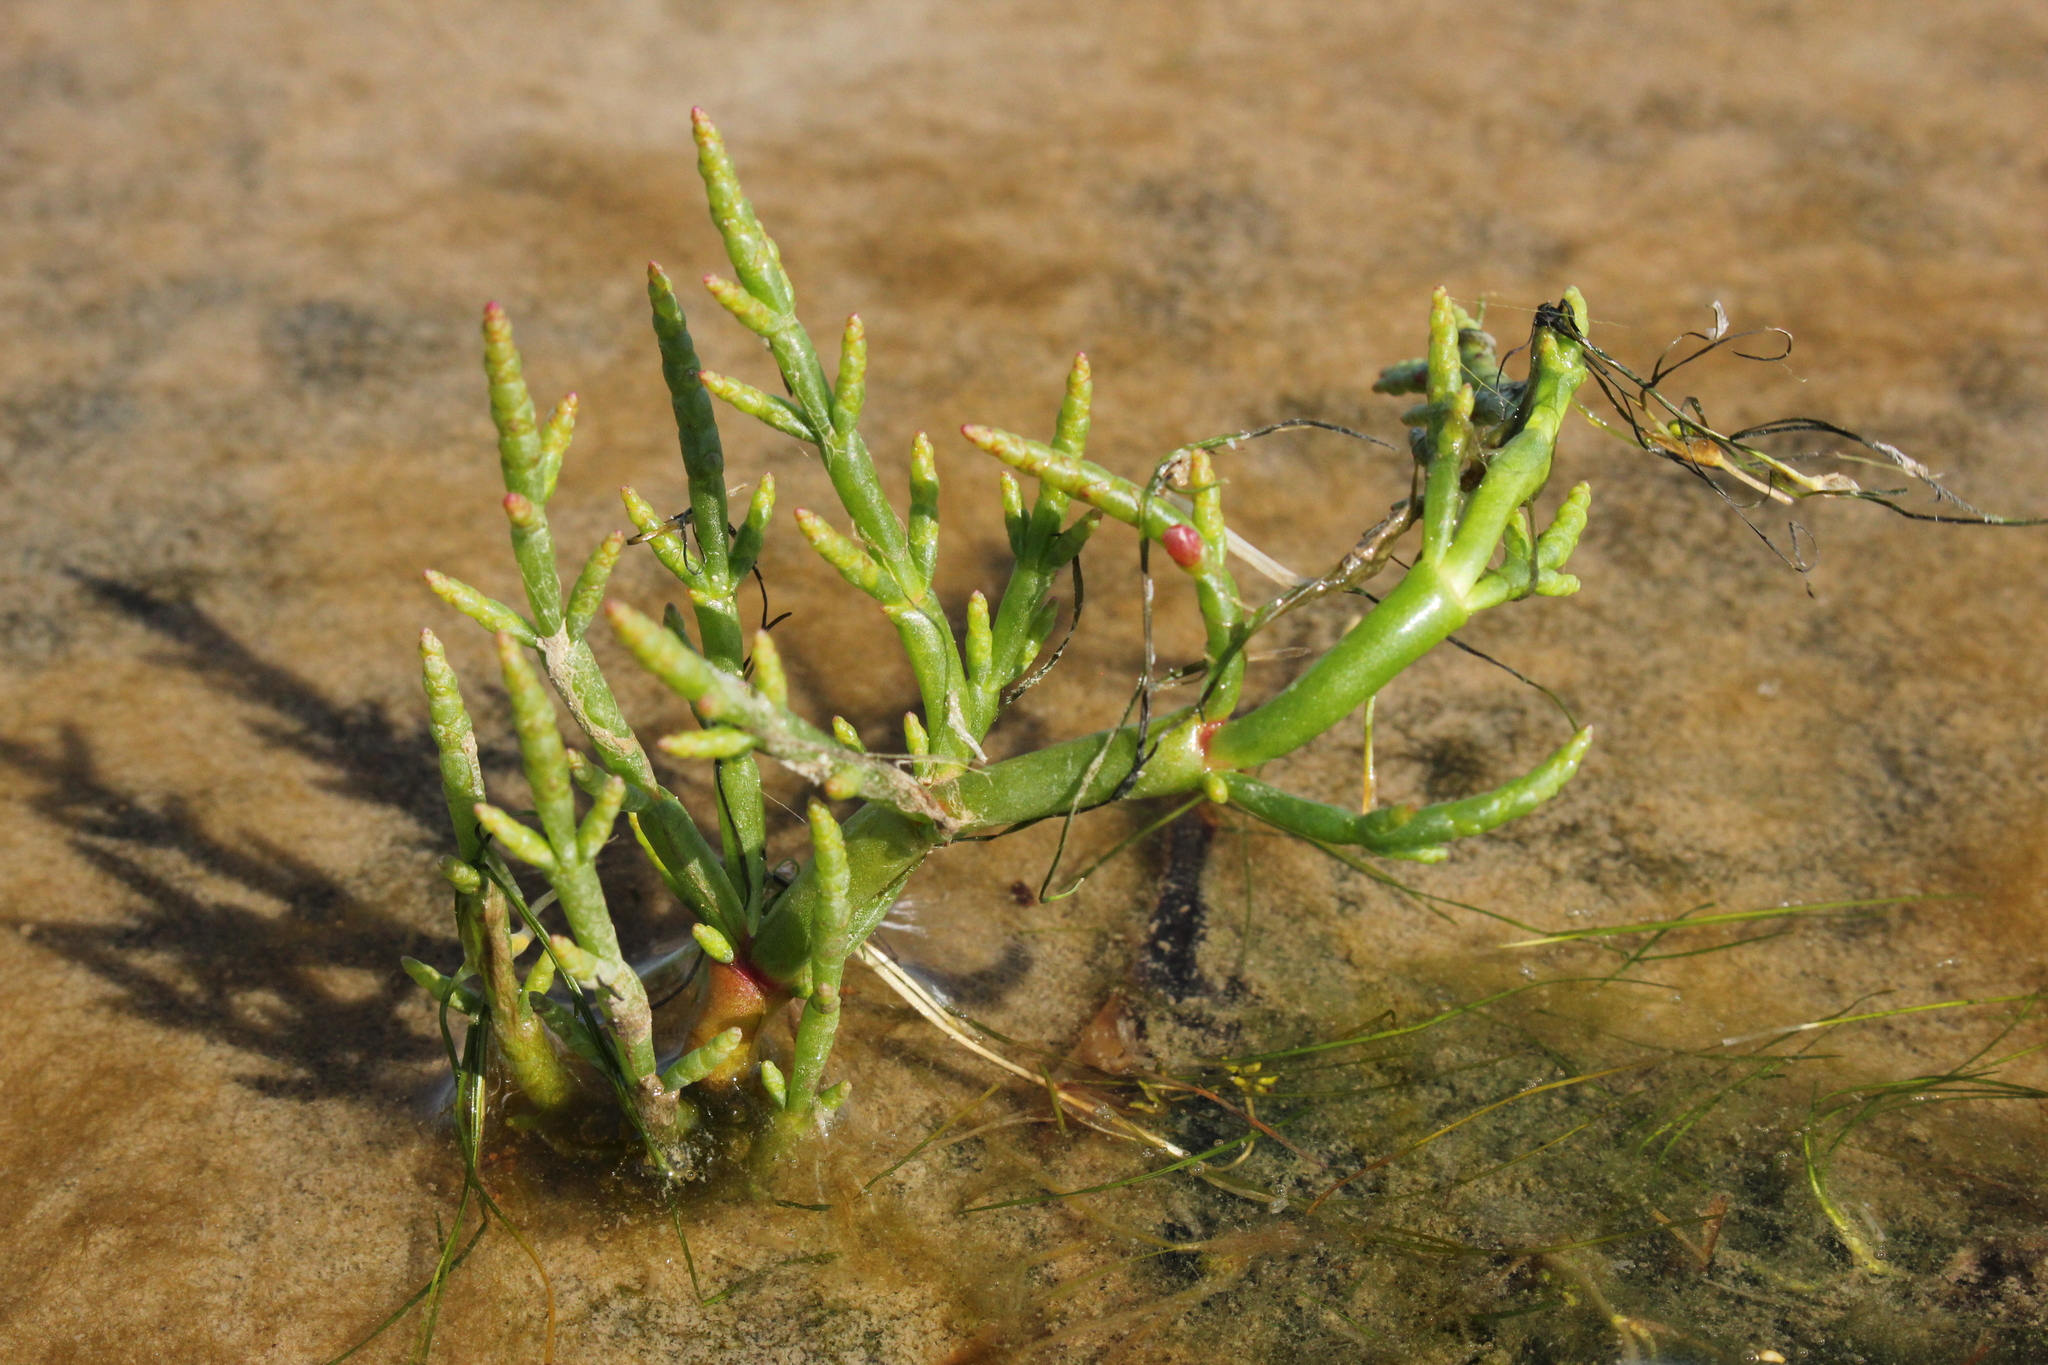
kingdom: Plantae
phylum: Tracheophyta
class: Magnoliopsida
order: Caryophyllales
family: Amaranthaceae
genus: Salicornia
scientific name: Salicornia maritima
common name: Jointed glasswort
